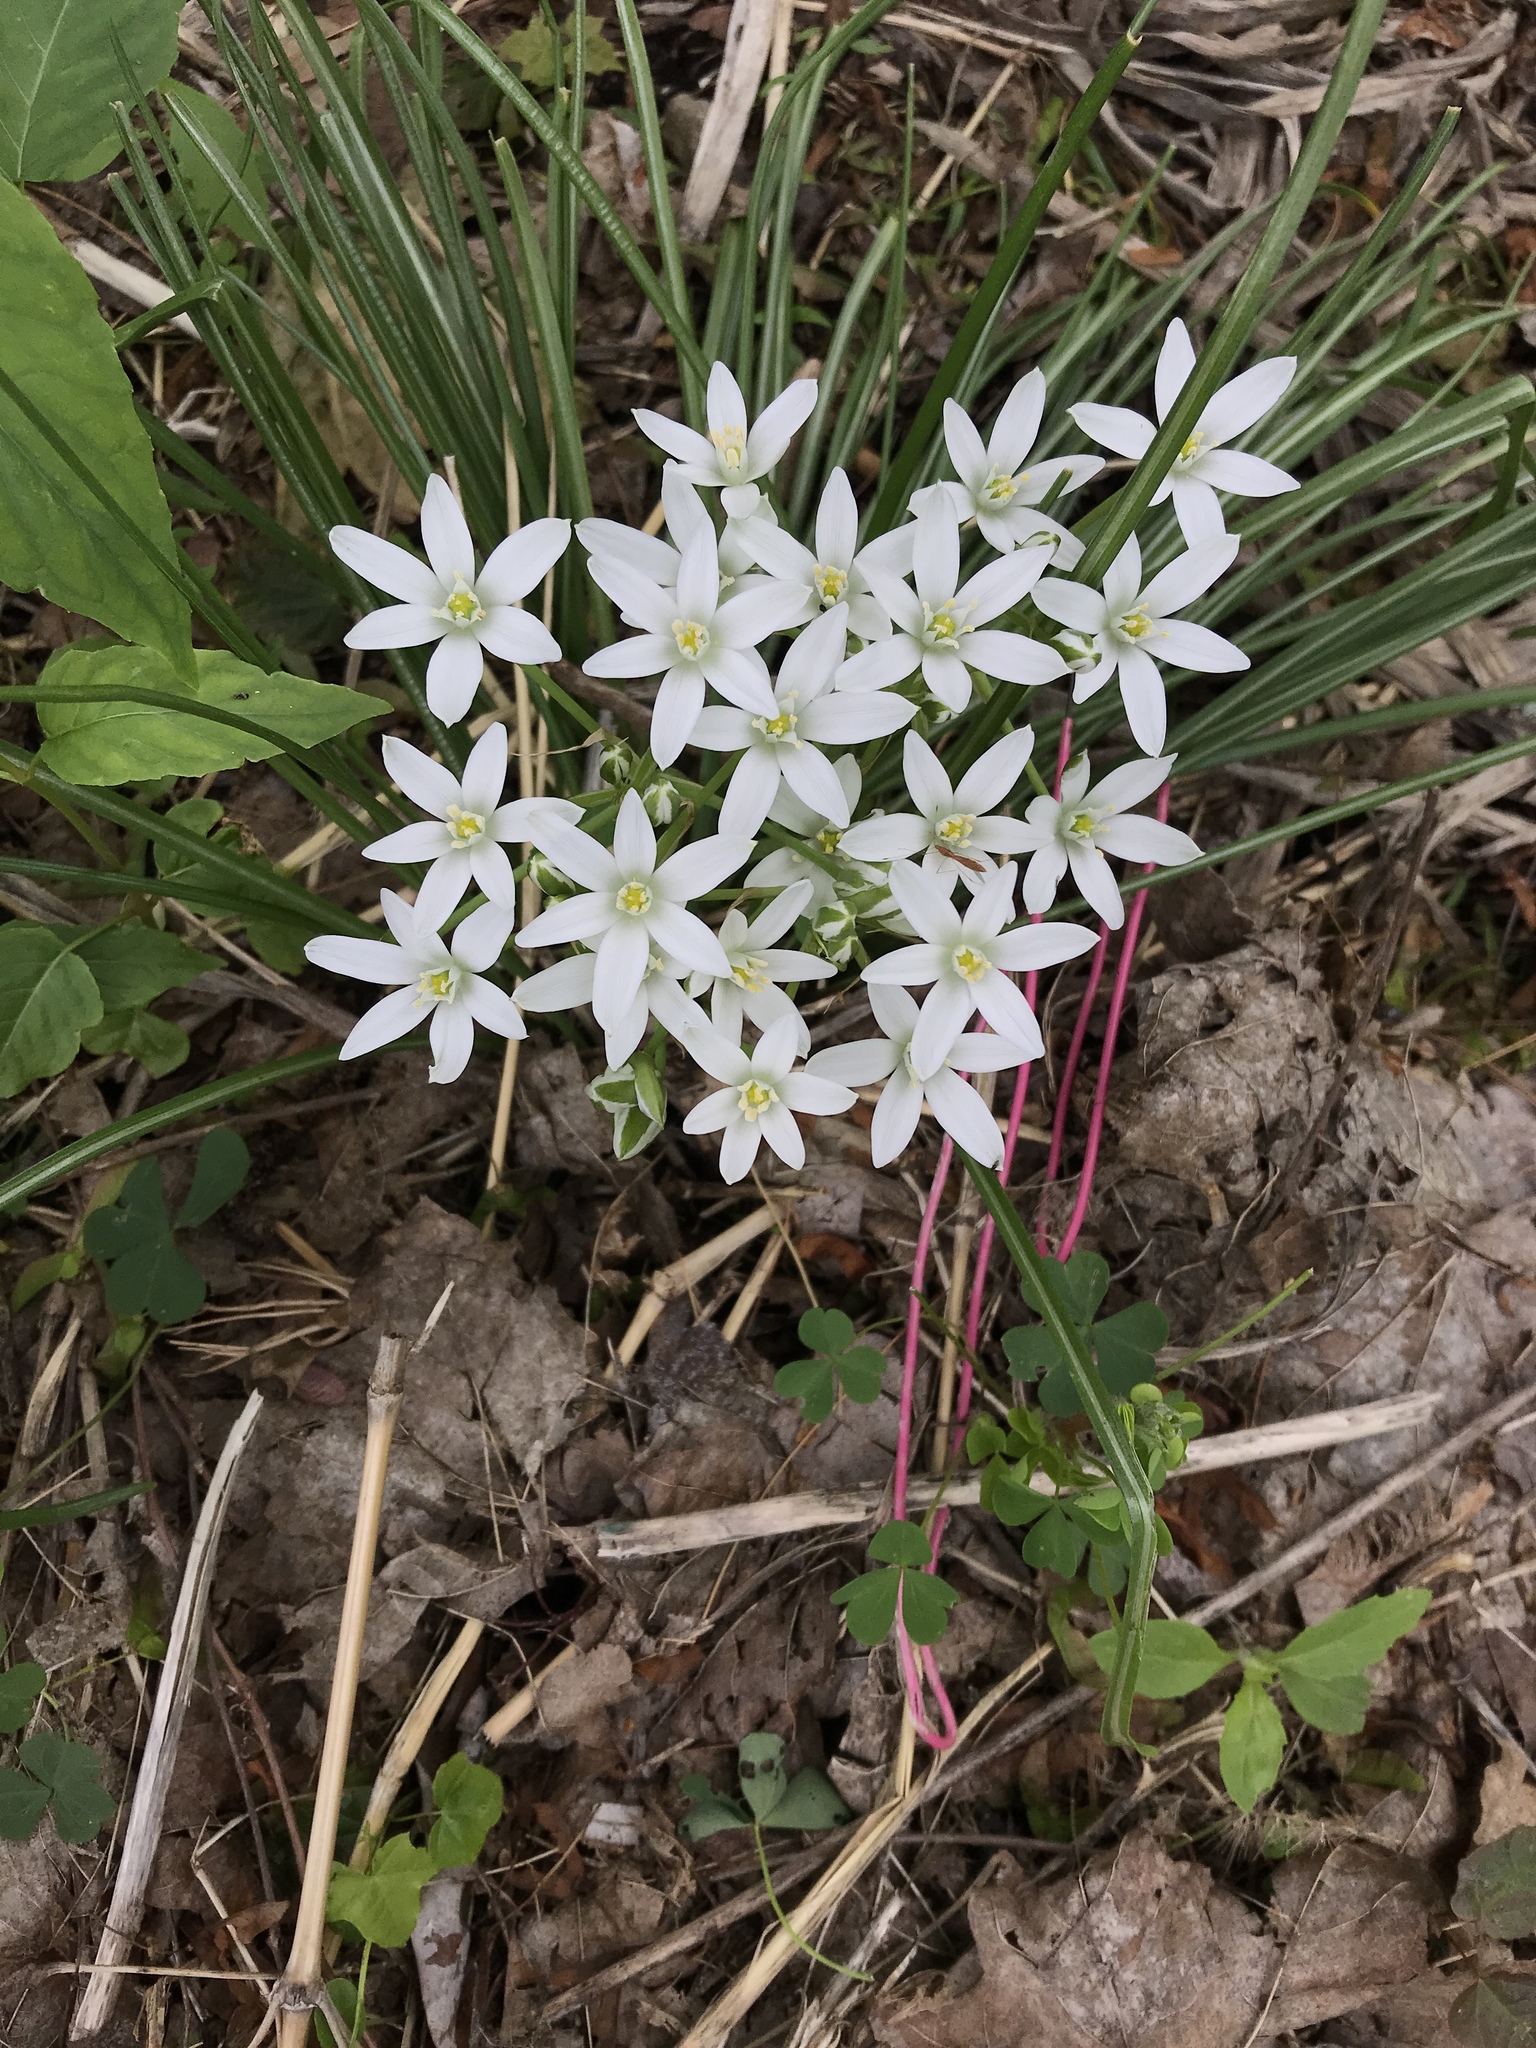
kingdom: Plantae
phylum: Tracheophyta
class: Liliopsida
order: Asparagales
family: Asparagaceae
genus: Ornithogalum
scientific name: Ornithogalum umbellatum
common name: Garden star-of-bethlehem
